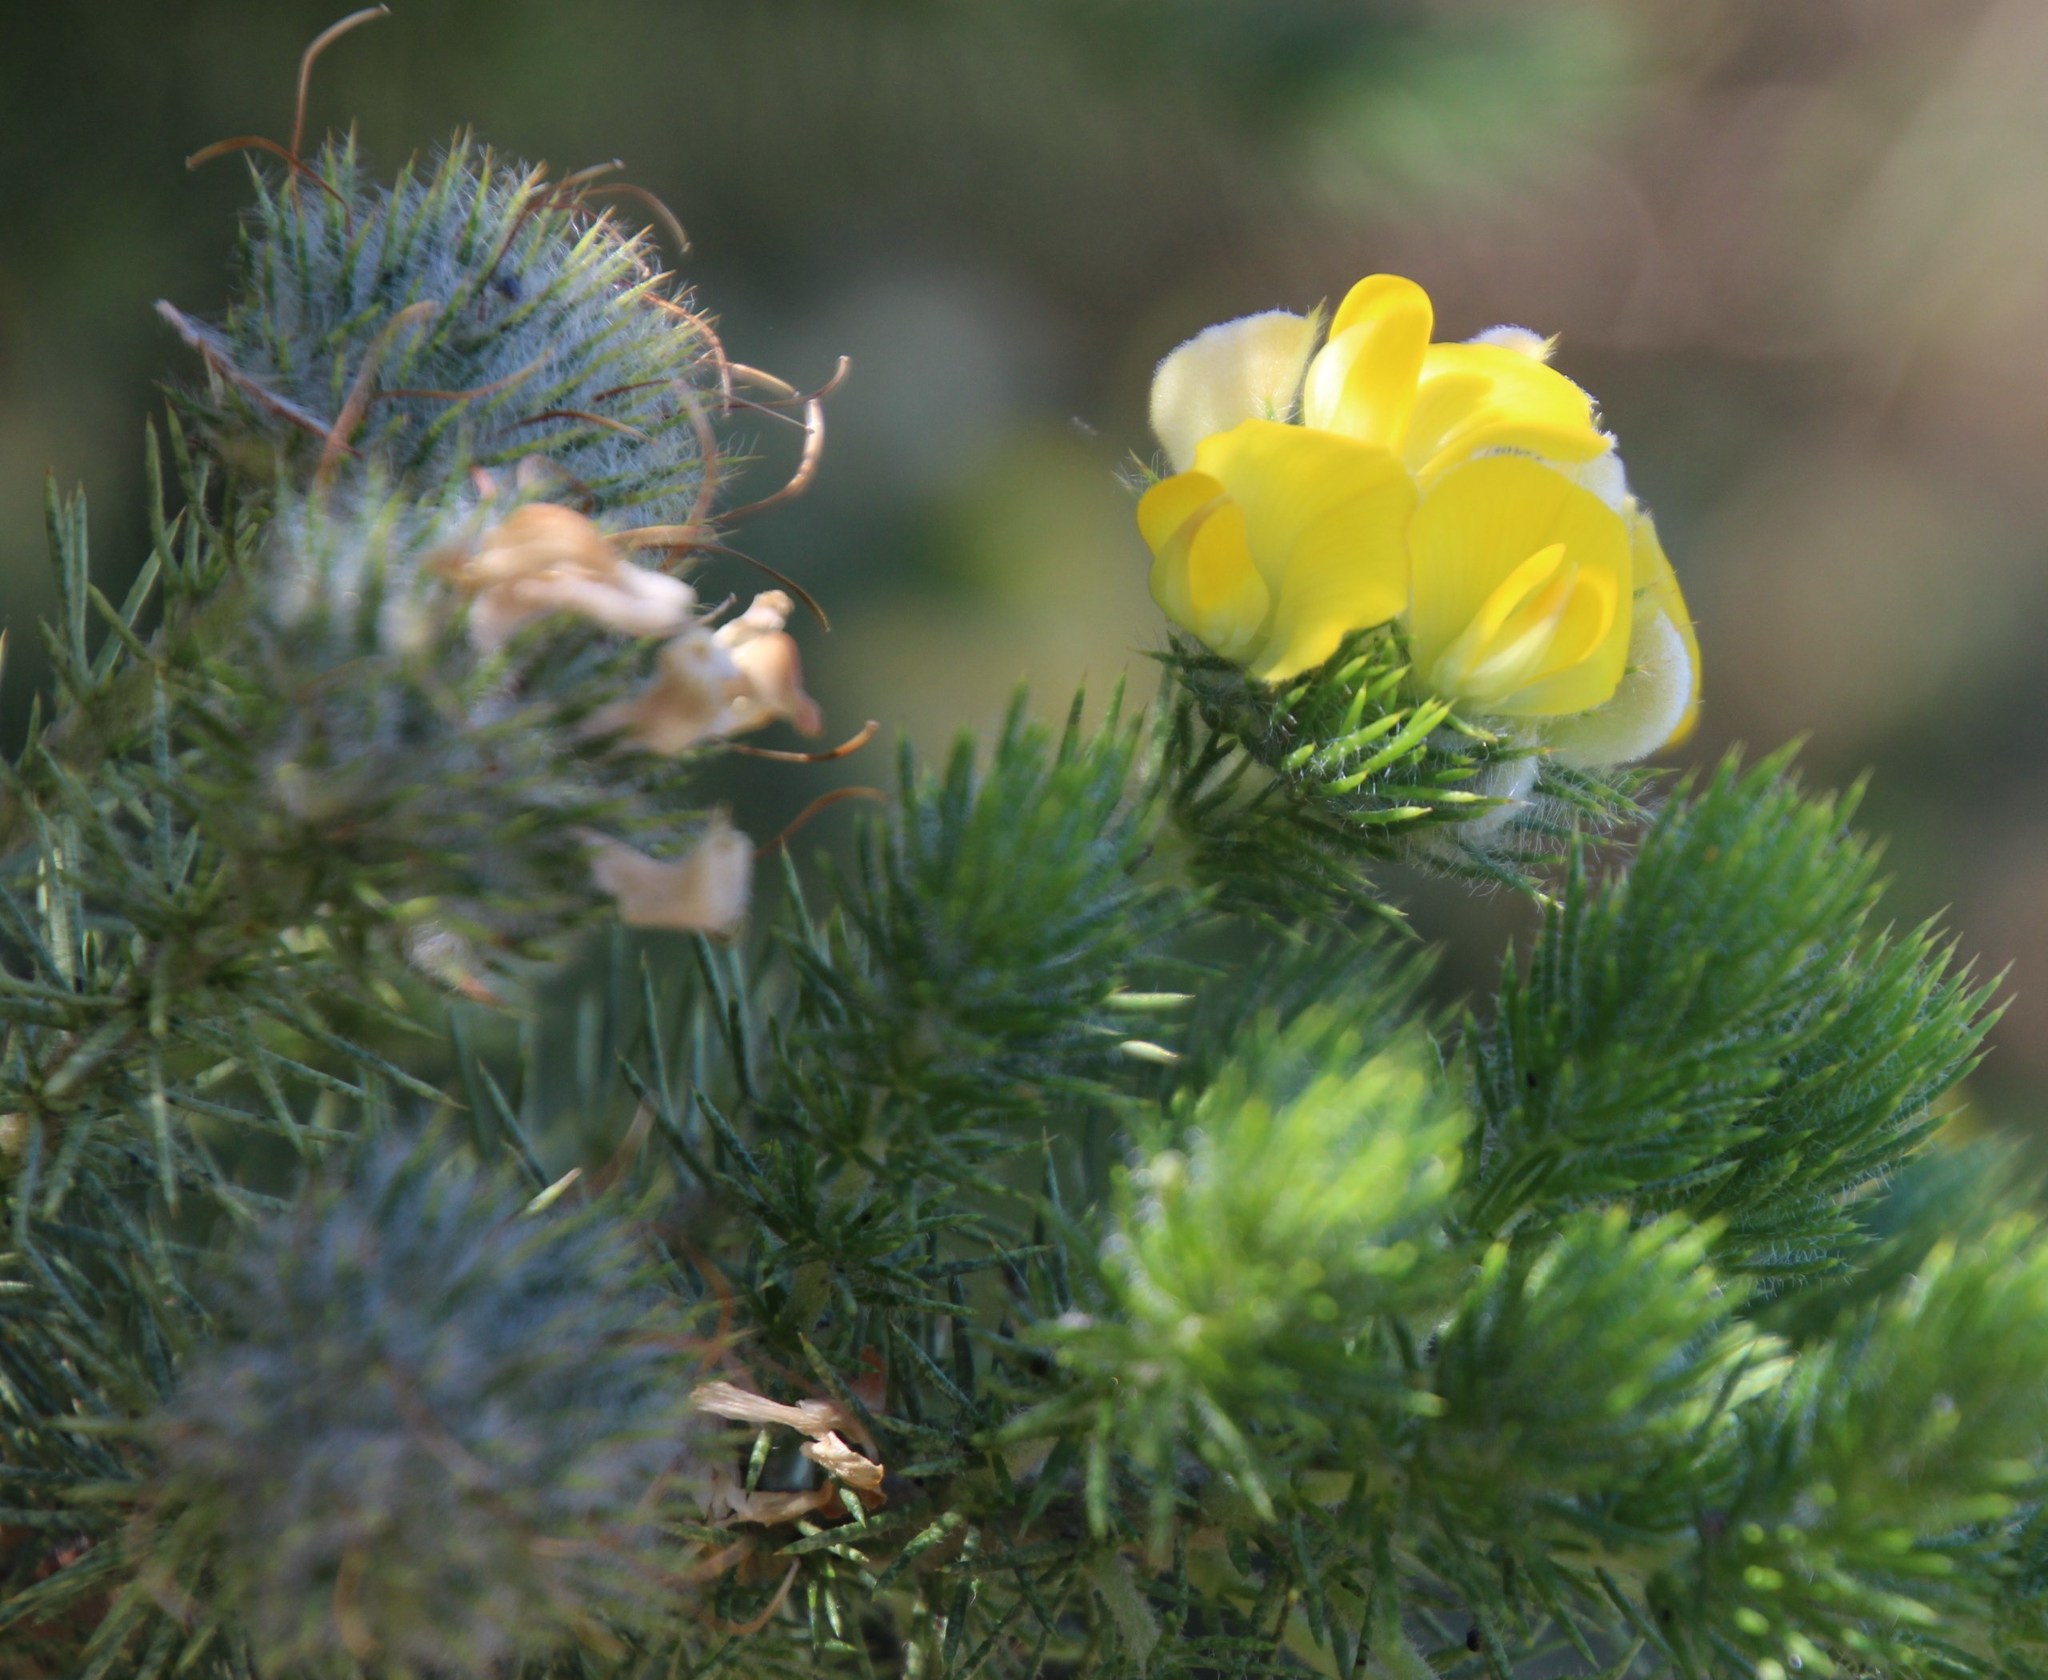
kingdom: Plantae
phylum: Tracheophyta
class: Magnoliopsida
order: Fabales
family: Fabaceae
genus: Aspalathus
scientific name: Aspalathus chenopoda
